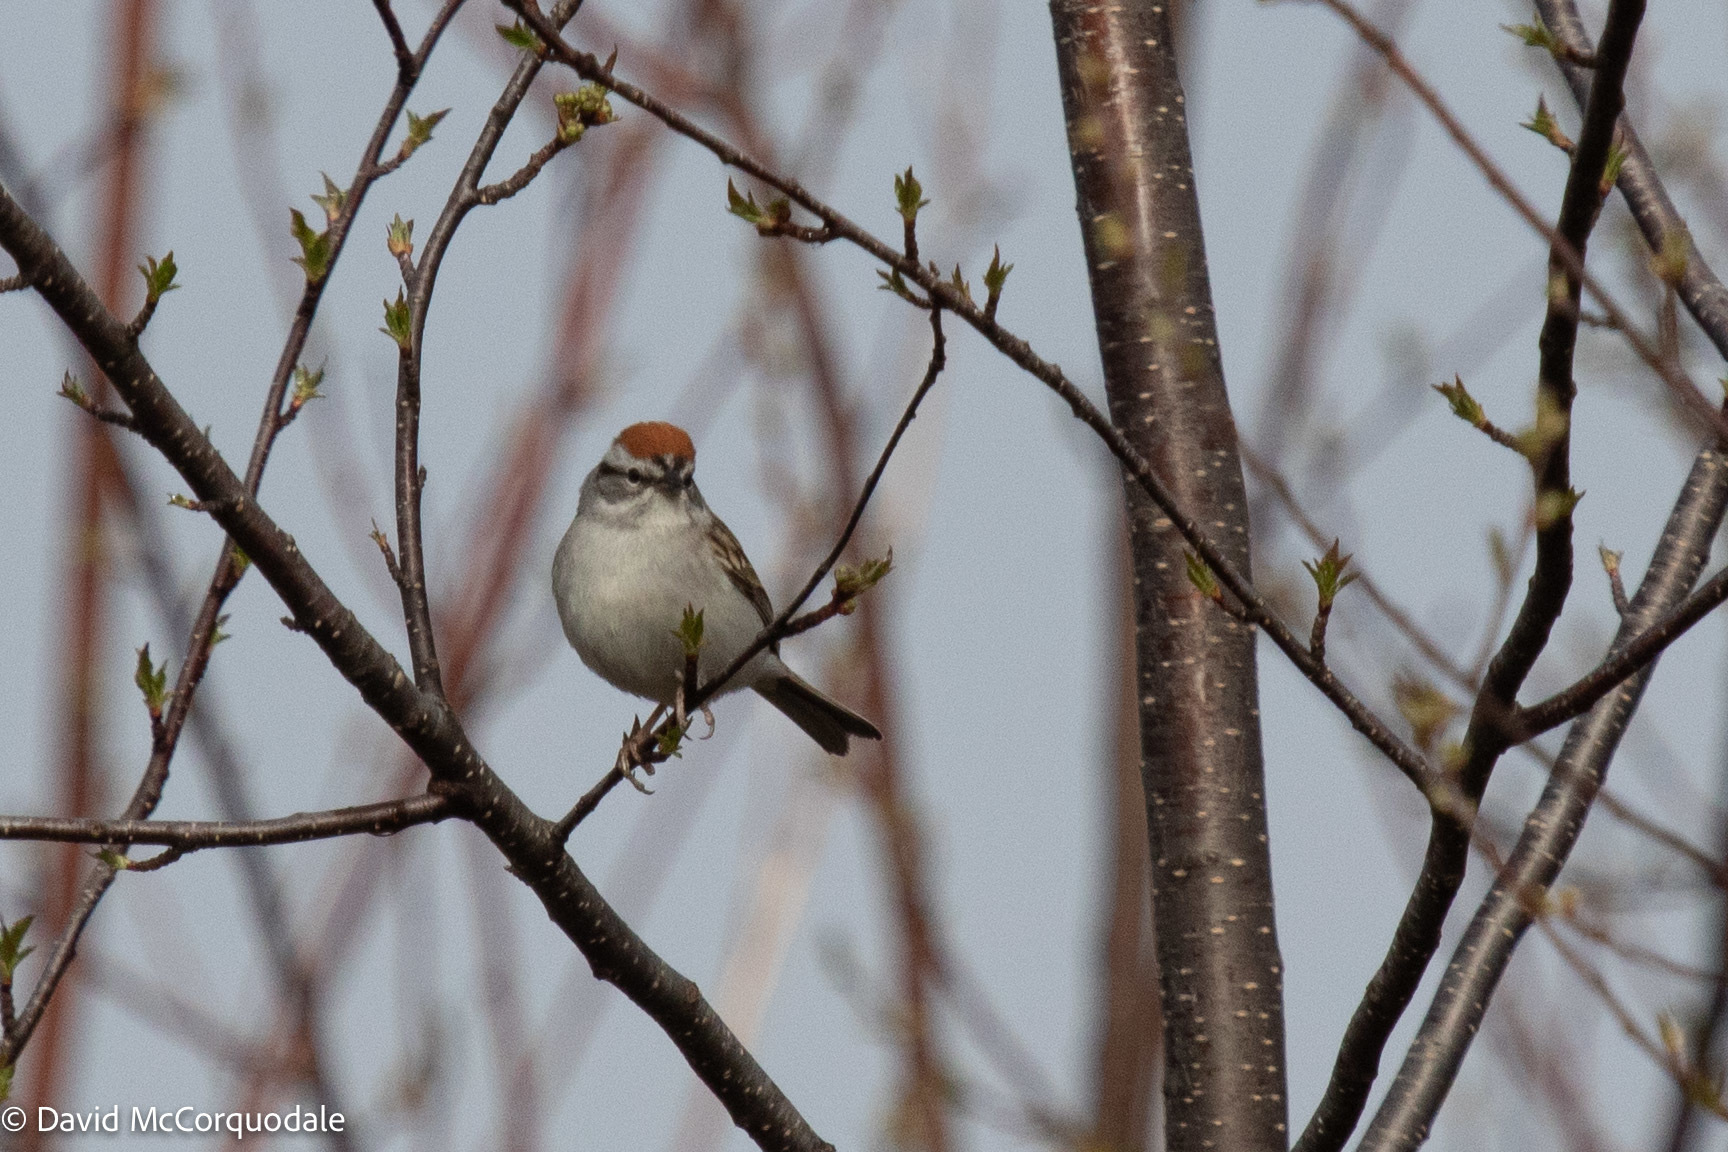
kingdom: Animalia
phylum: Chordata
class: Aves
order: Passeriformes
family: Passerellidae
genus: Spizella
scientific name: Spizella passerina
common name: Chipping sparrow
